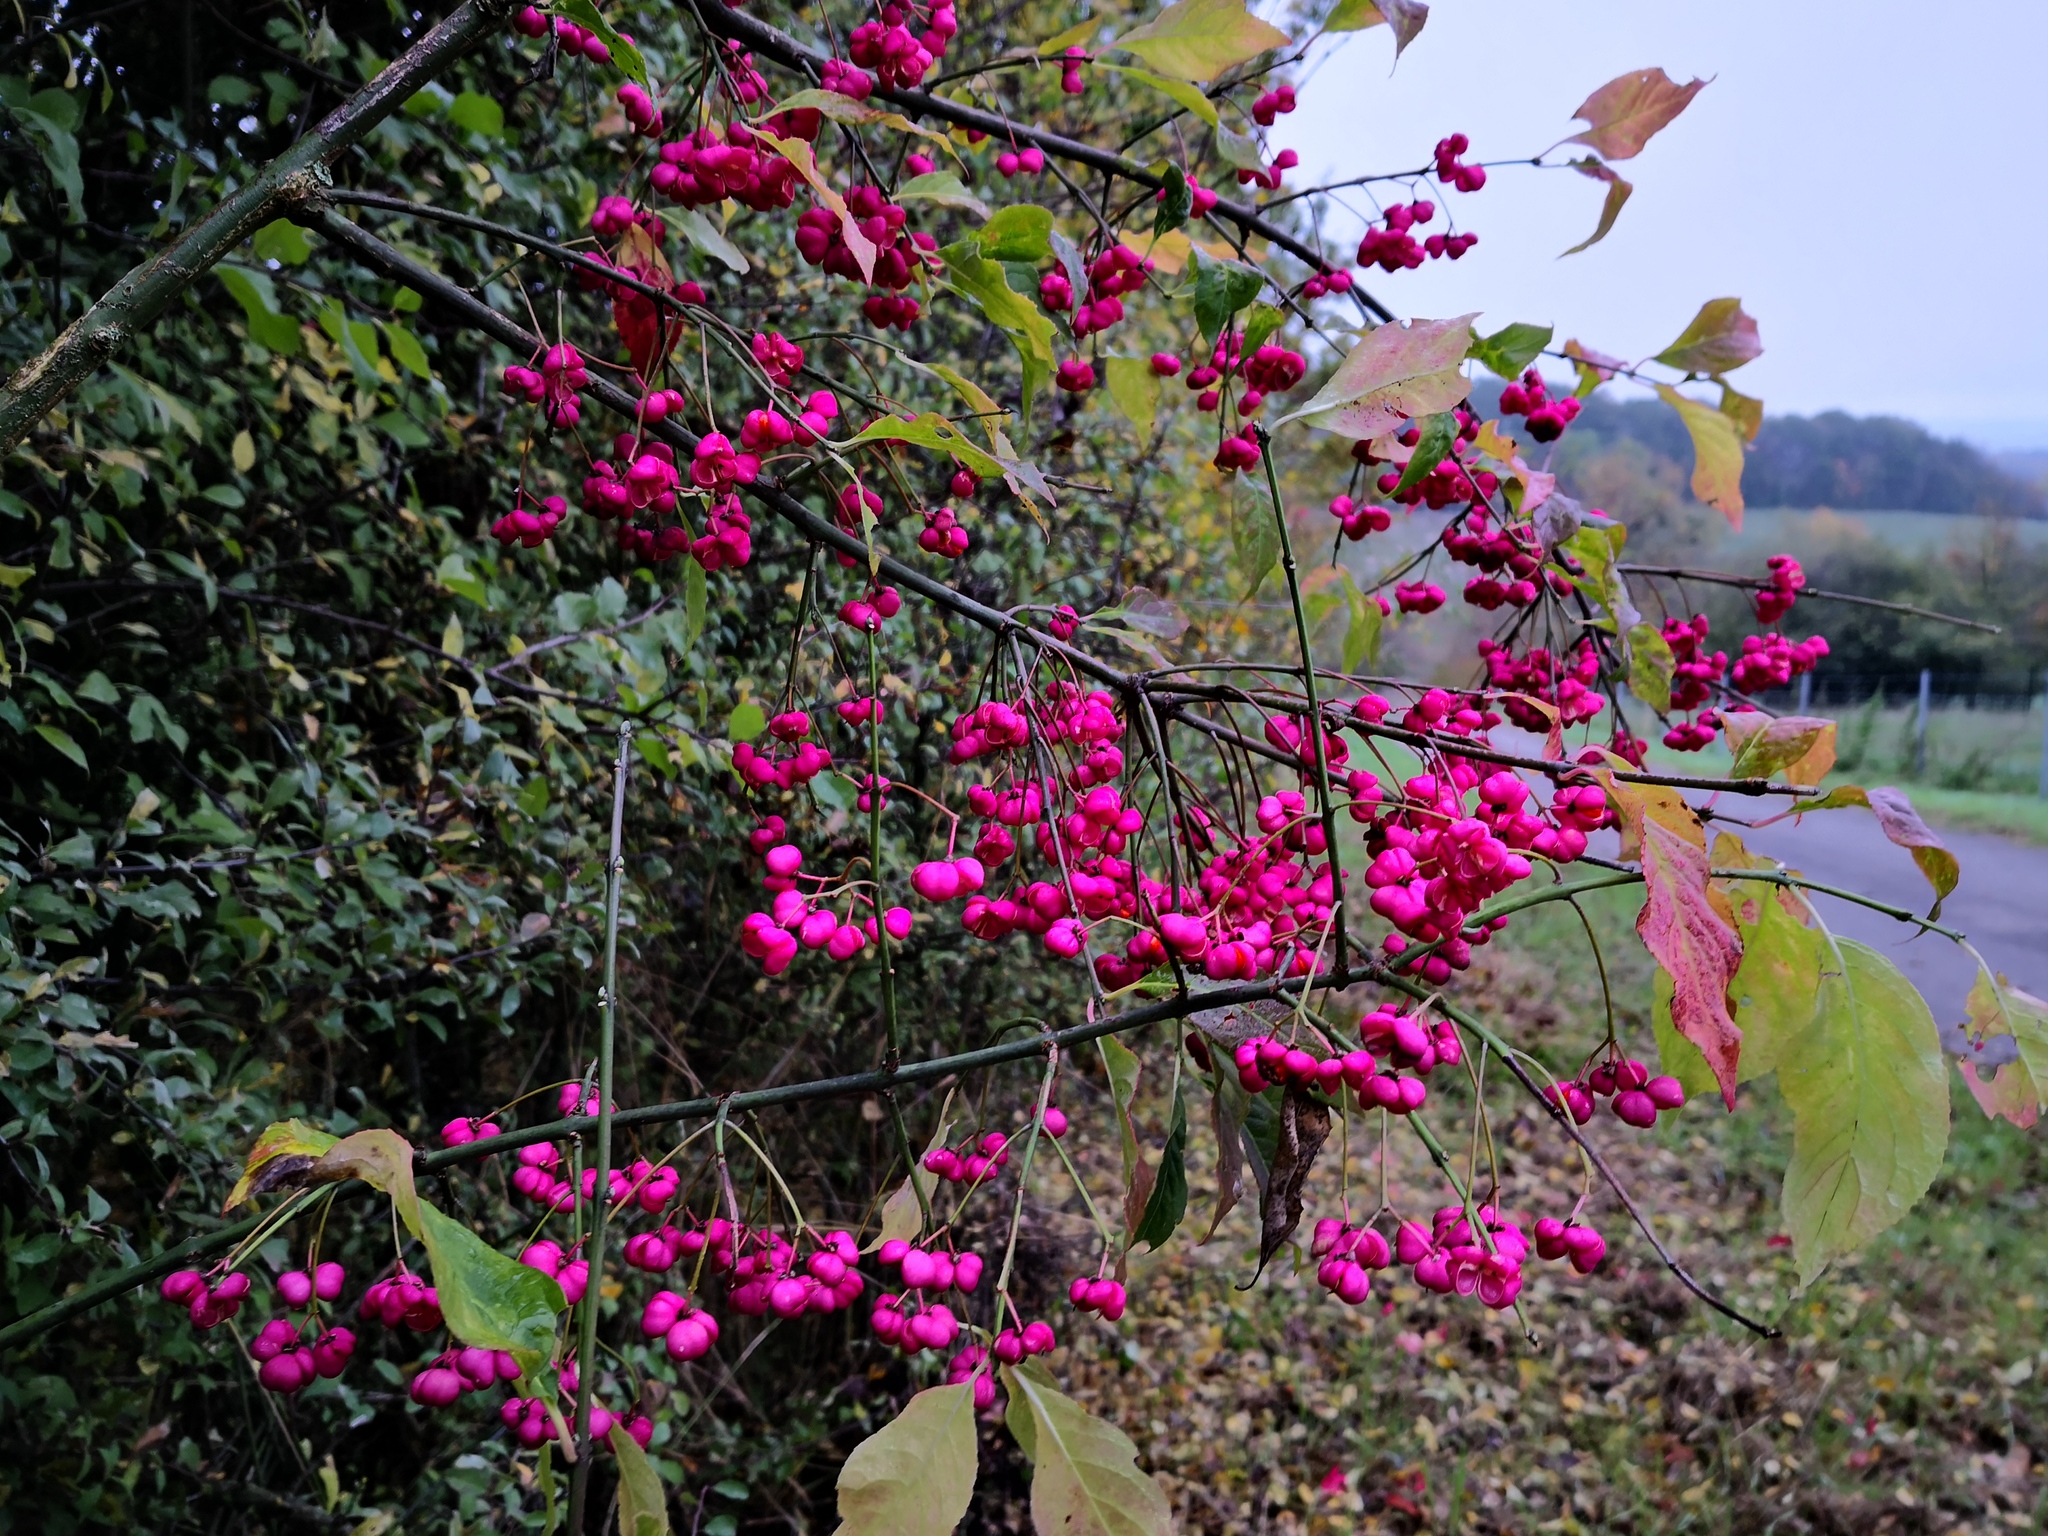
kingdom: Plantae
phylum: Tracheophyta
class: Magnoliopsida
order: Celastrales
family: Celastraceae
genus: Euonymus
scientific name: Euonymus europaeus
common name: Spindle
